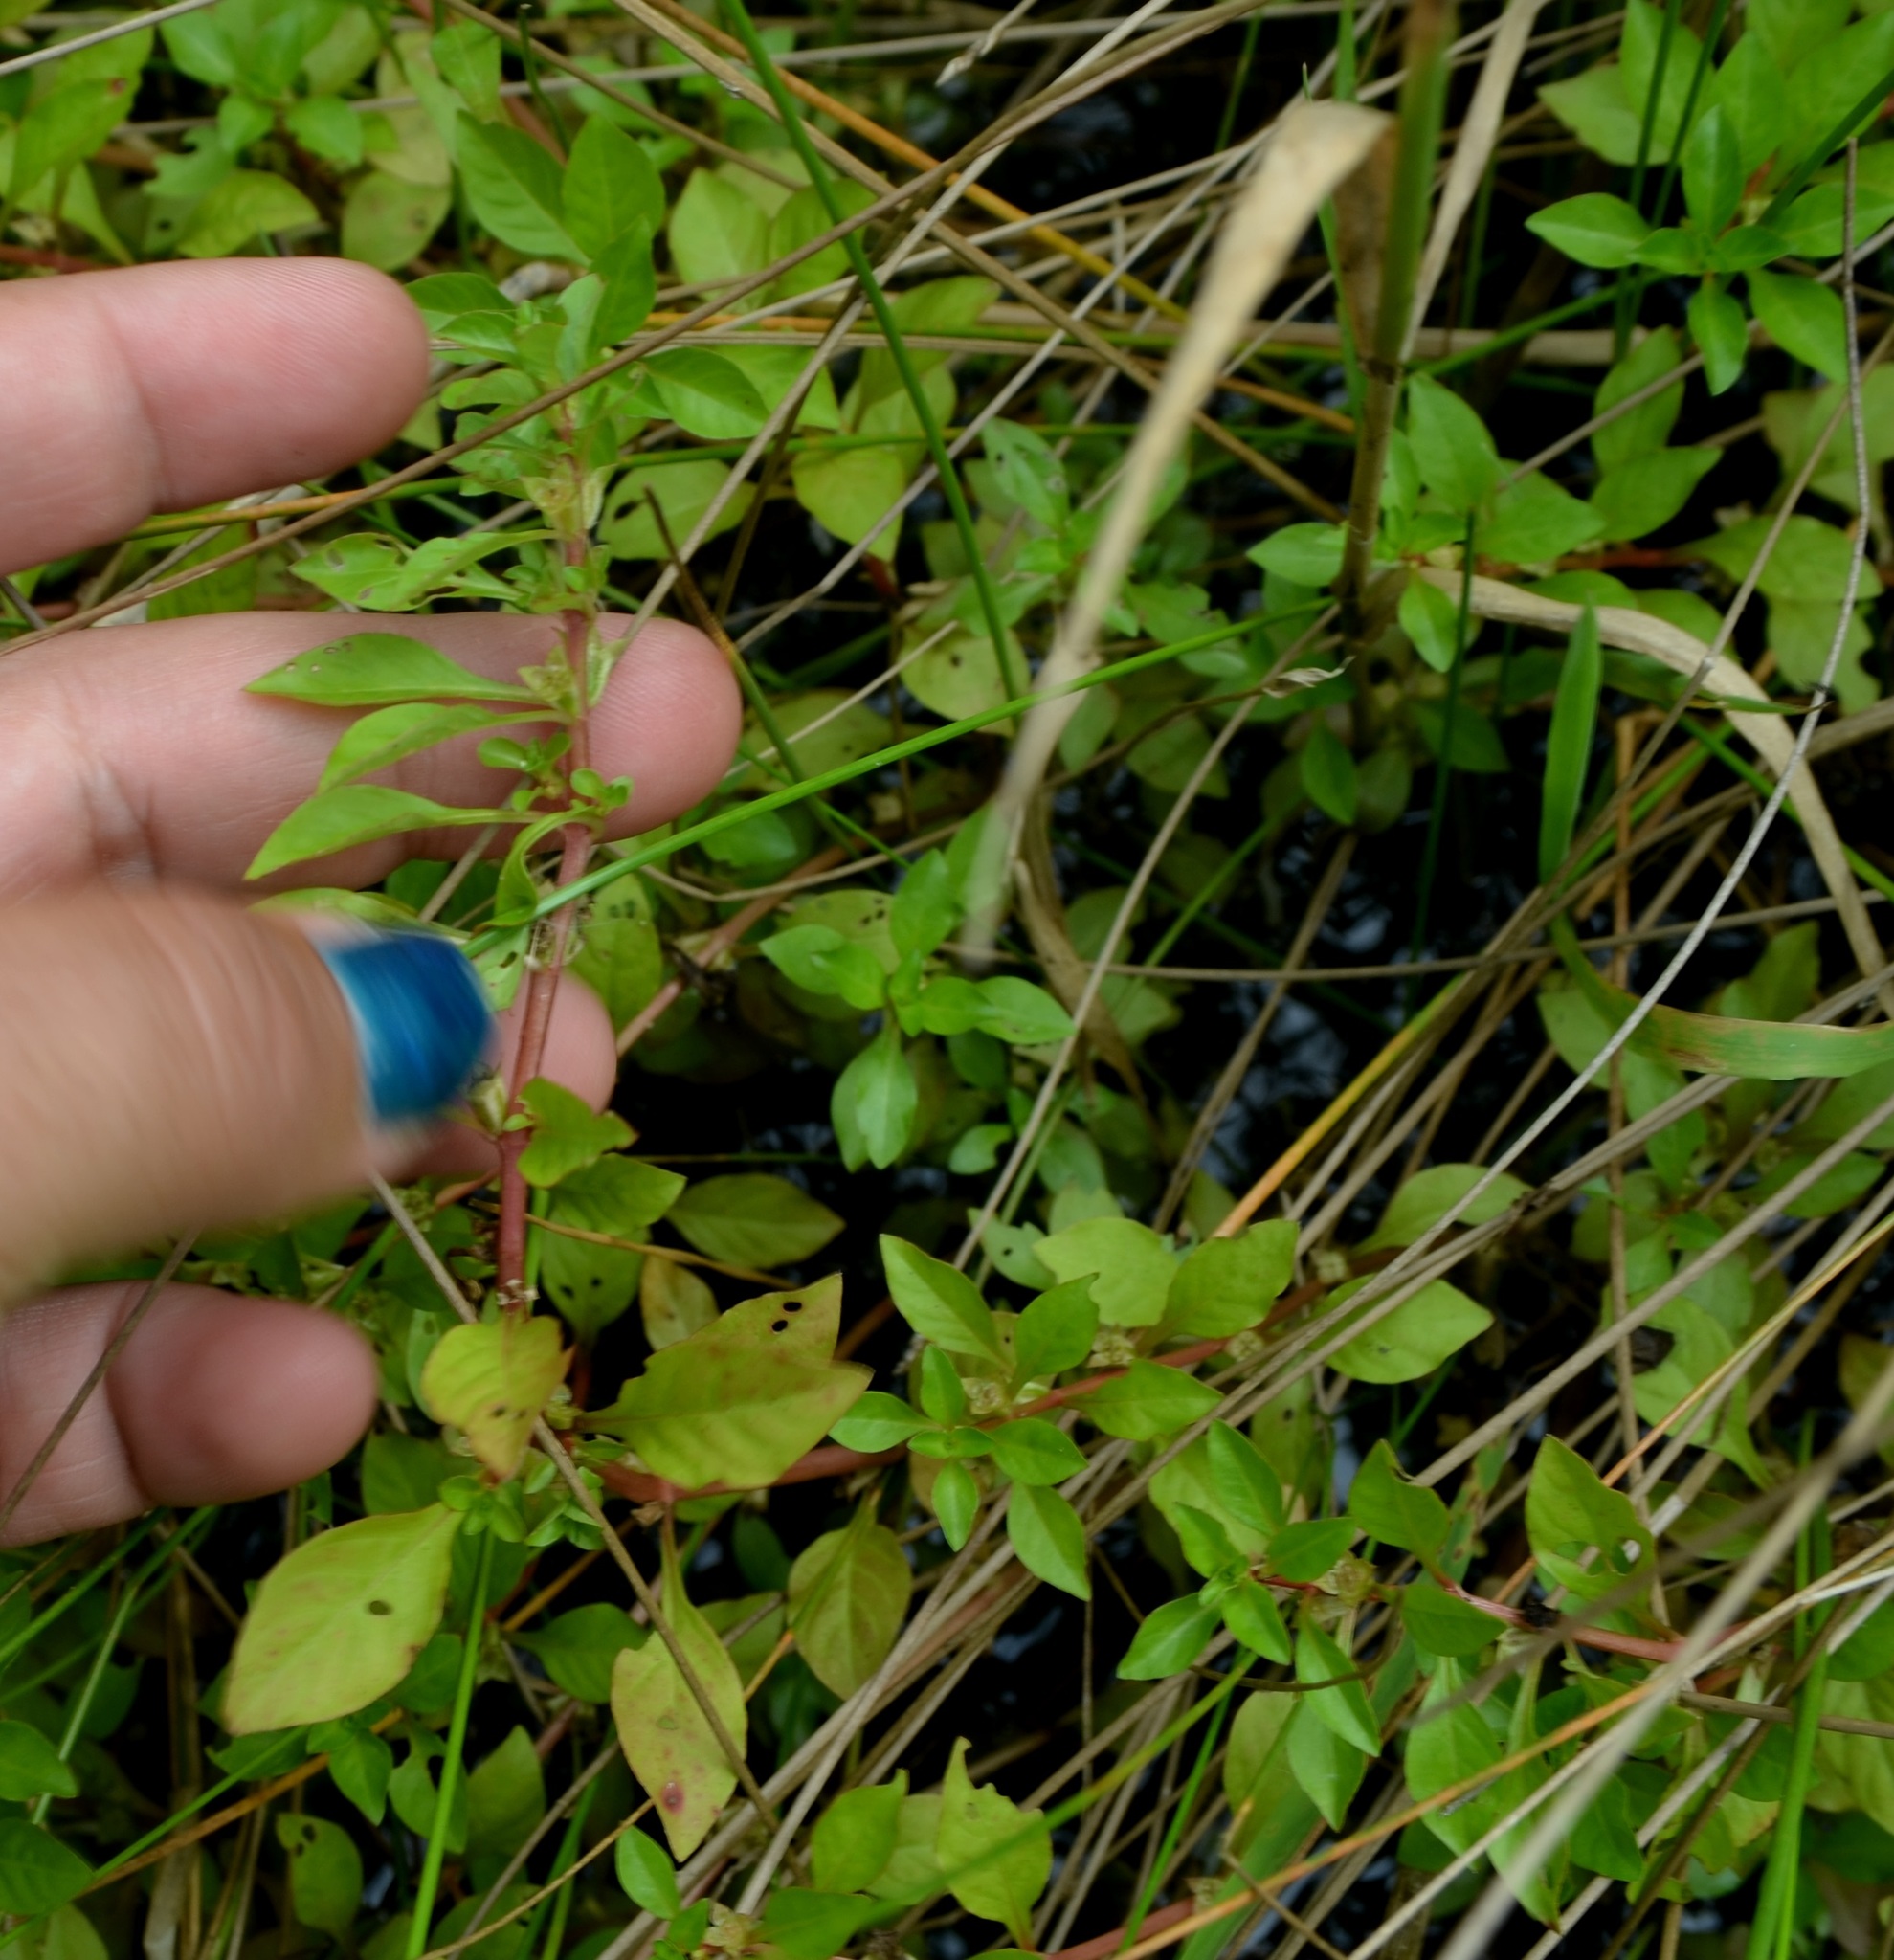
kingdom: Plantae
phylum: Tracheophyta
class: Magnoliopsida
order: Myrtales
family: Onagraceae
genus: Ludwigia
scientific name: Ludwigia palustris
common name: Hampshire-purslane
